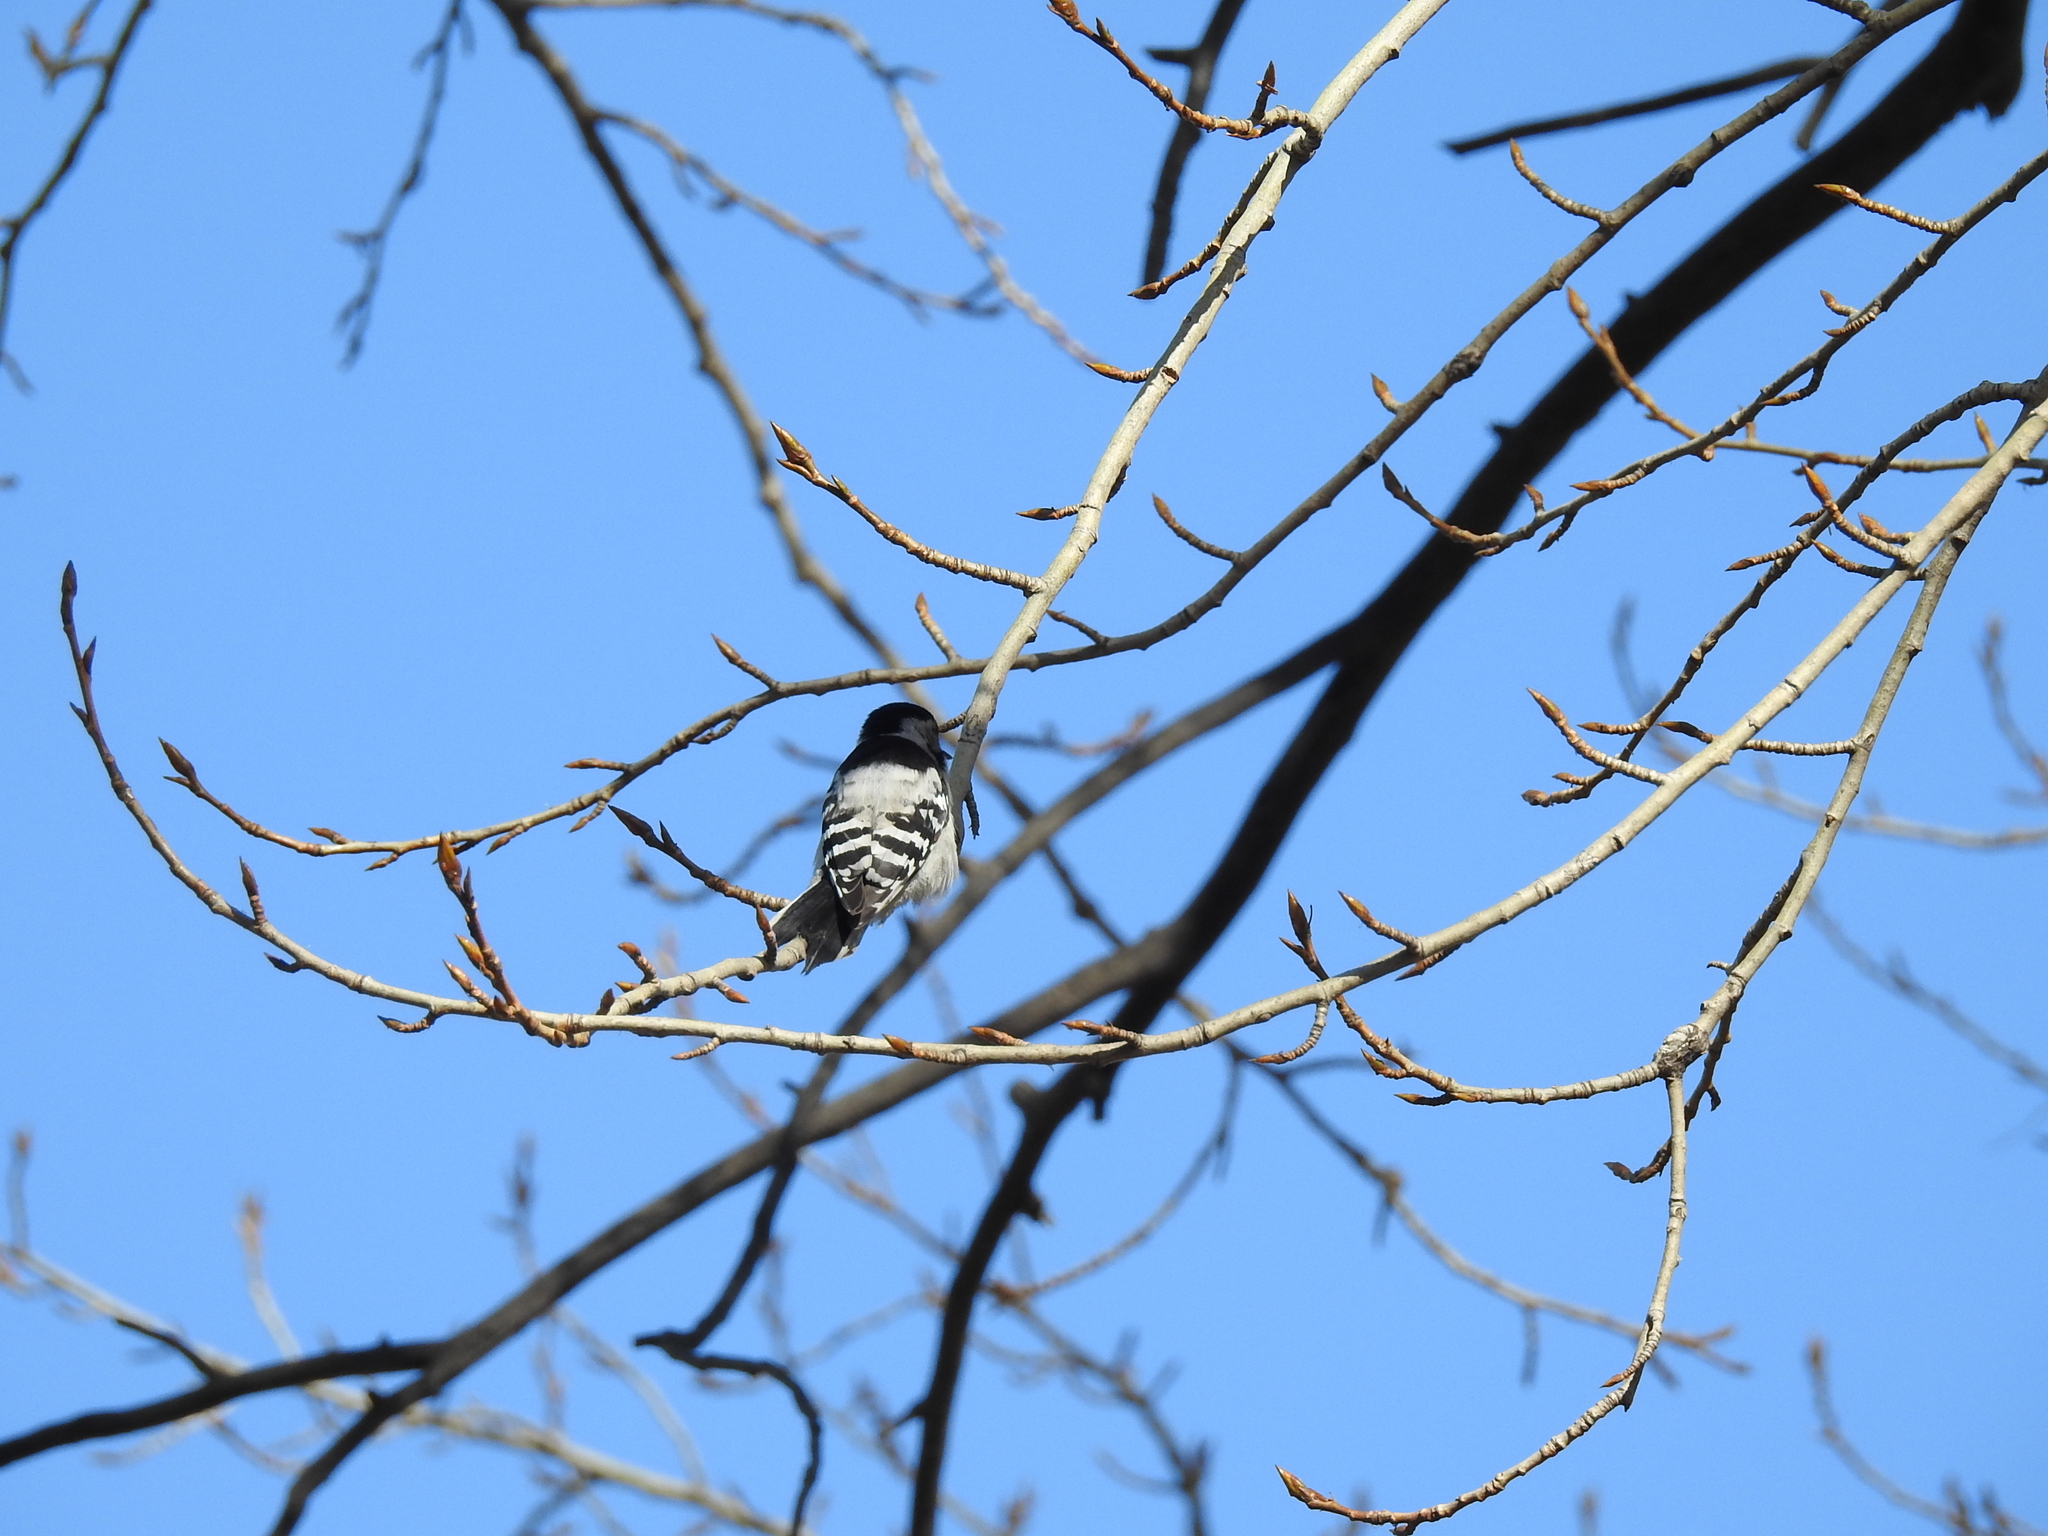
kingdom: Animalia
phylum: Chordata
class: Aves
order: Piciformes
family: Picidae
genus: Dryobates
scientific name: Dryobates minor
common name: Lesser spotted woodpecker
